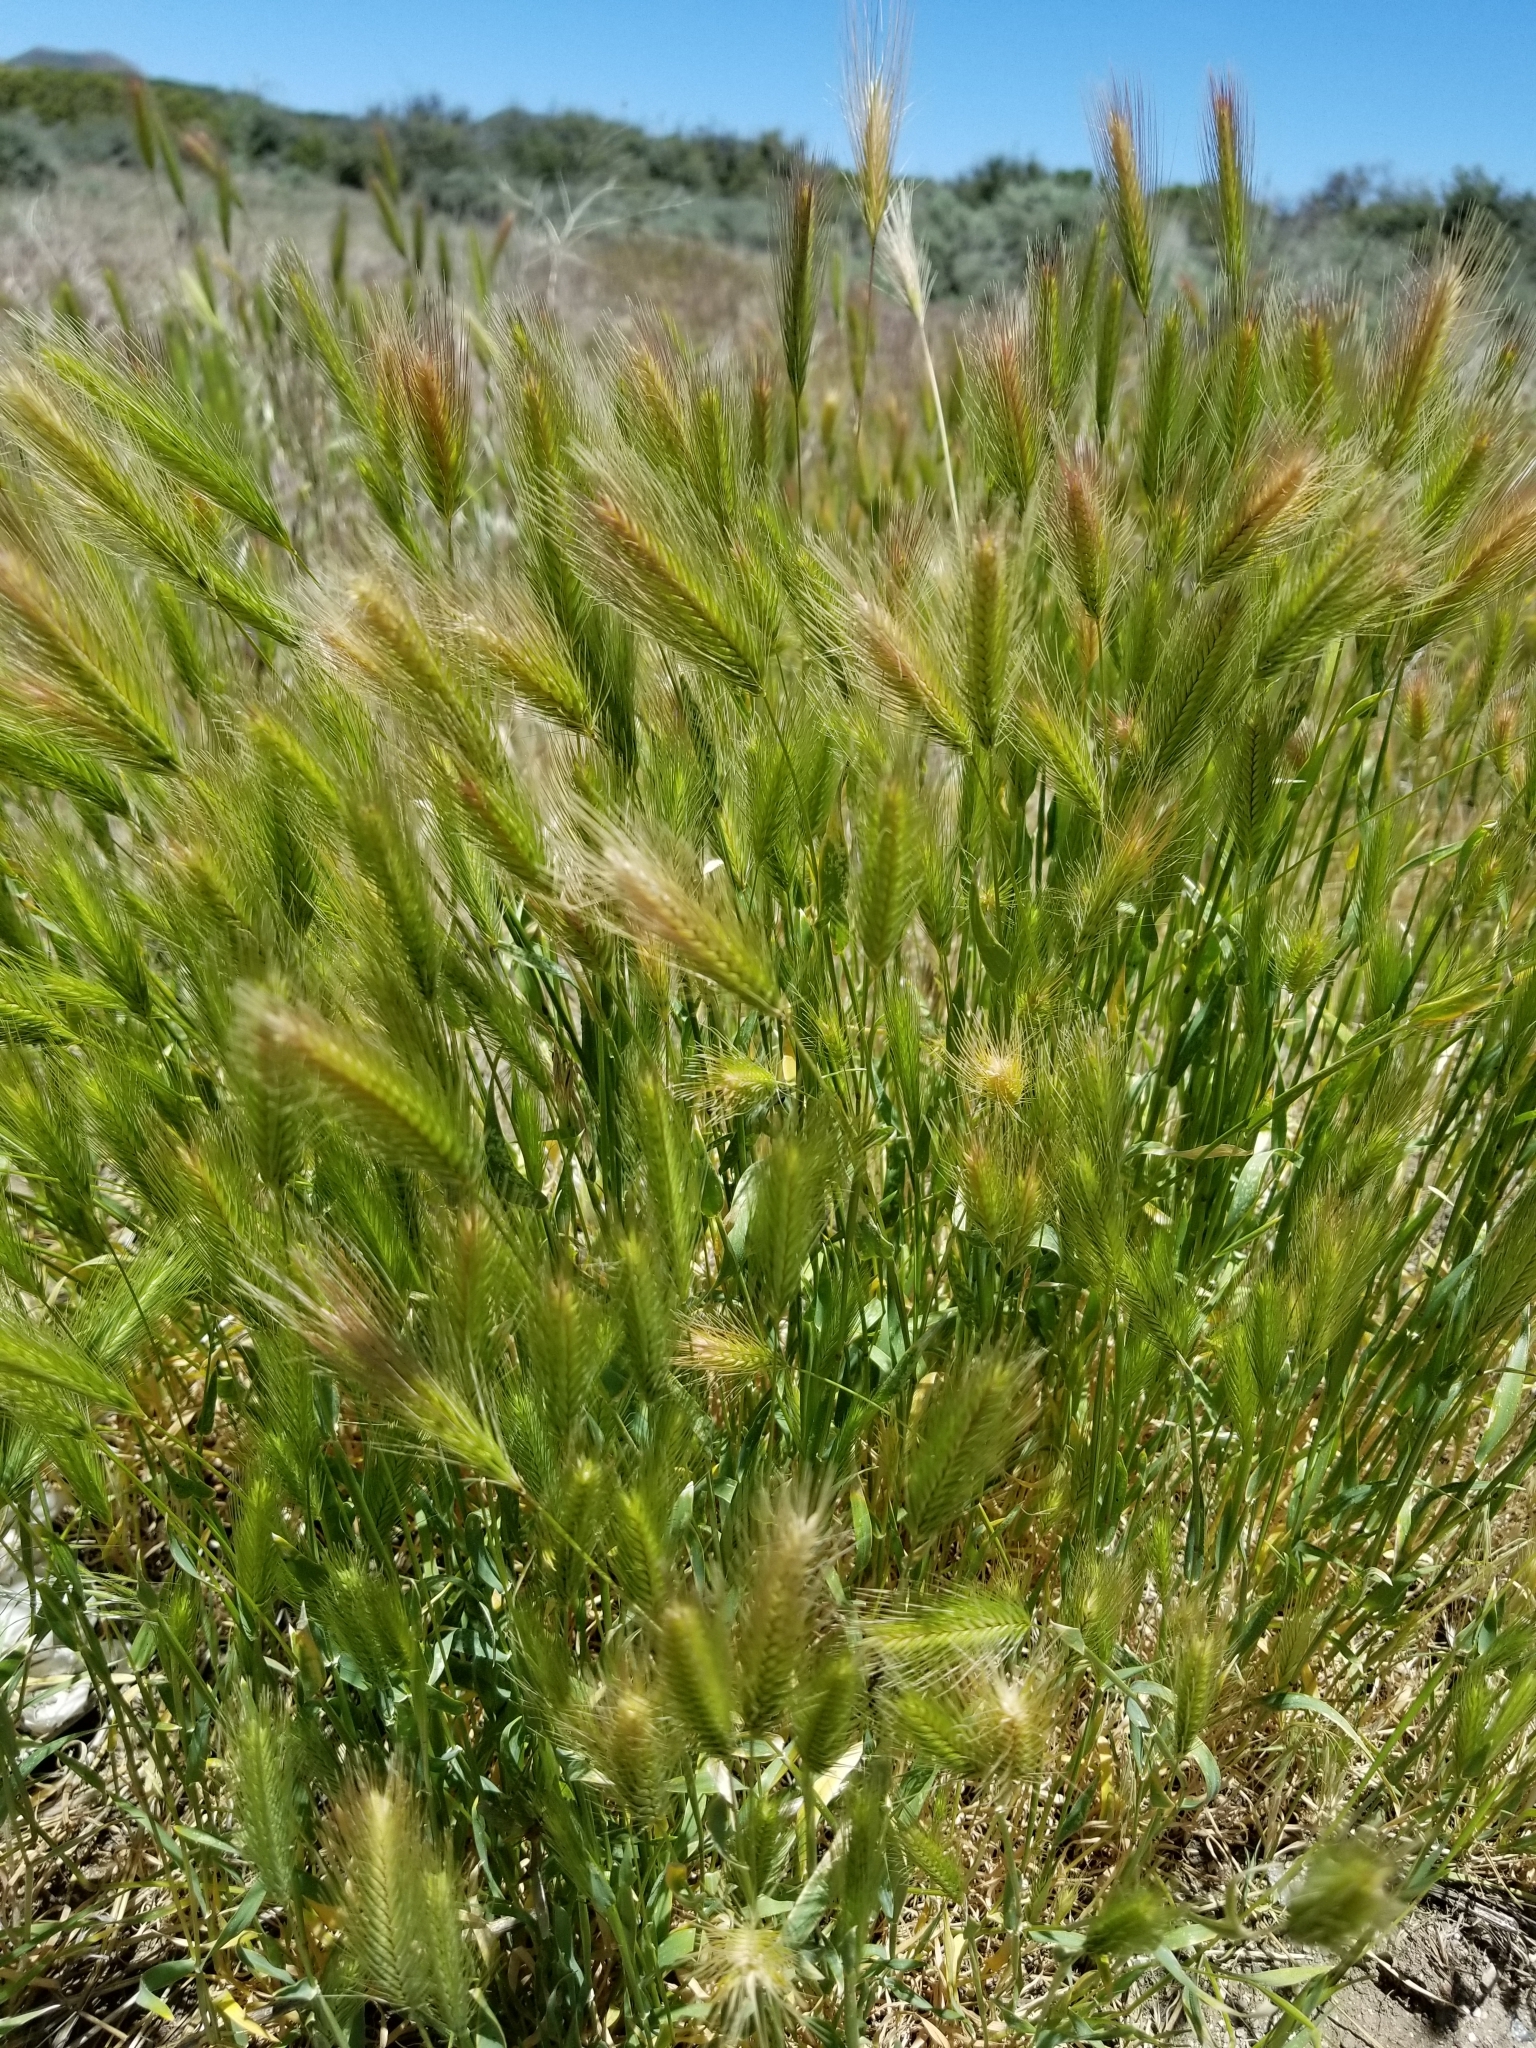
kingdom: Plantae
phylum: Tracheophyta
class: Liliopsida
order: Poales
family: Poaceae
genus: Hordeum
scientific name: Hordeum murinum
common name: Wall barley
